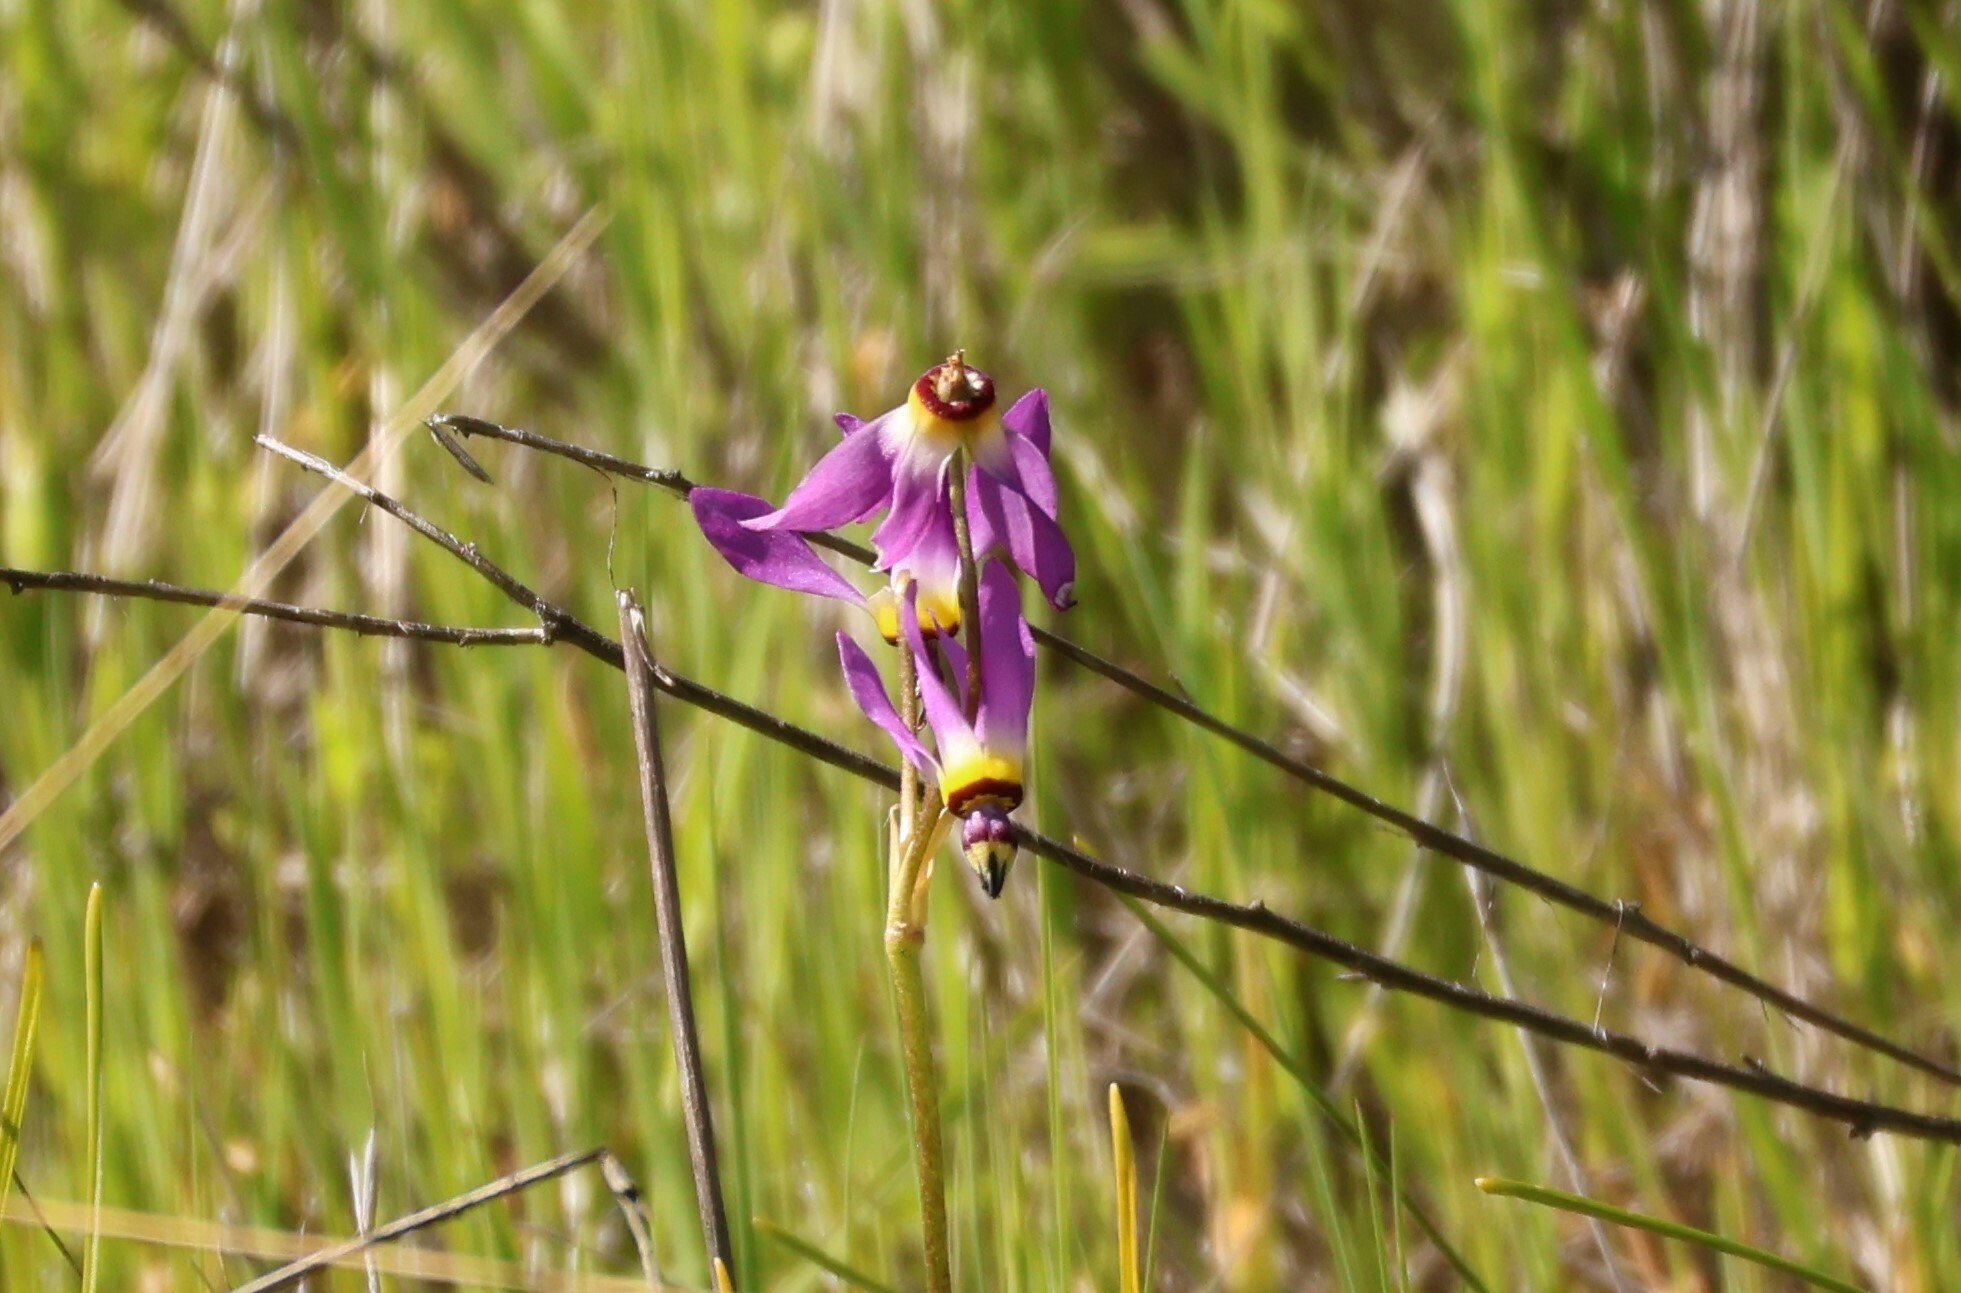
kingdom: Plantae
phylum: Tracheophyta
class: Magnoliopsida
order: Ericales
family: Primulaceae
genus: Dodecatheon
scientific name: Dodecatheon clevelandii
